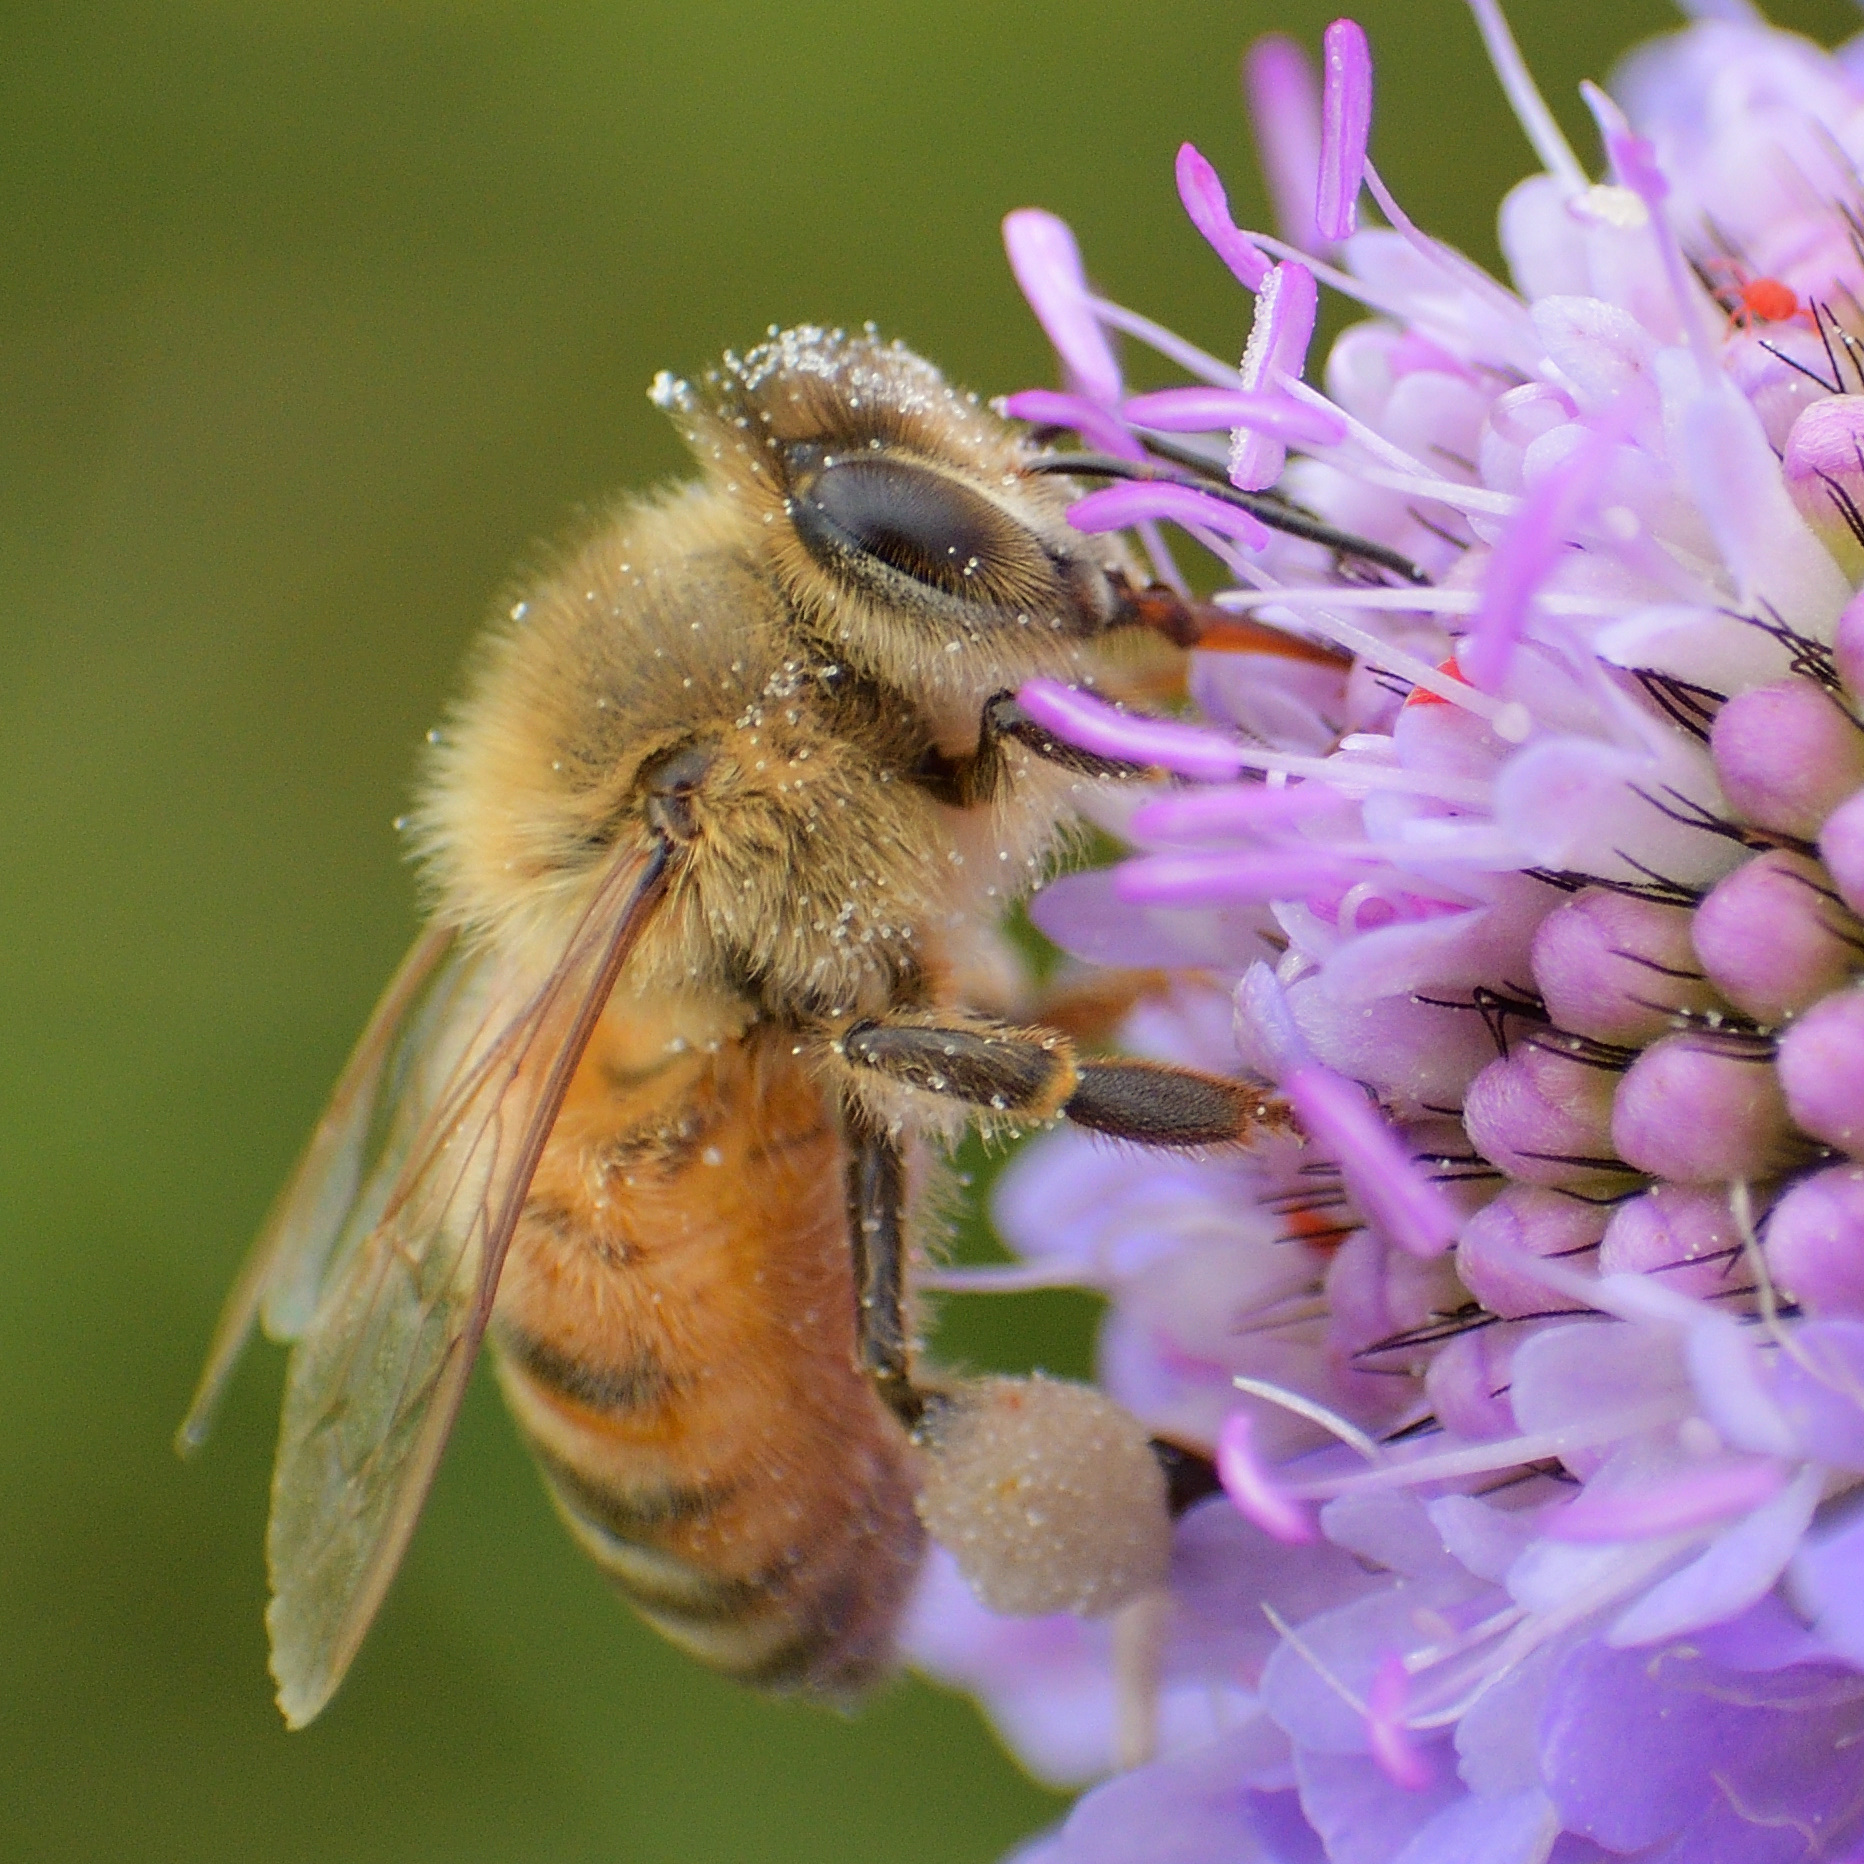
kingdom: Animalia
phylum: Arthropoda
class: Insecta
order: Hymenoptera
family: Apidae
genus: Apis
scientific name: Apis mellifera
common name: Honey bee
